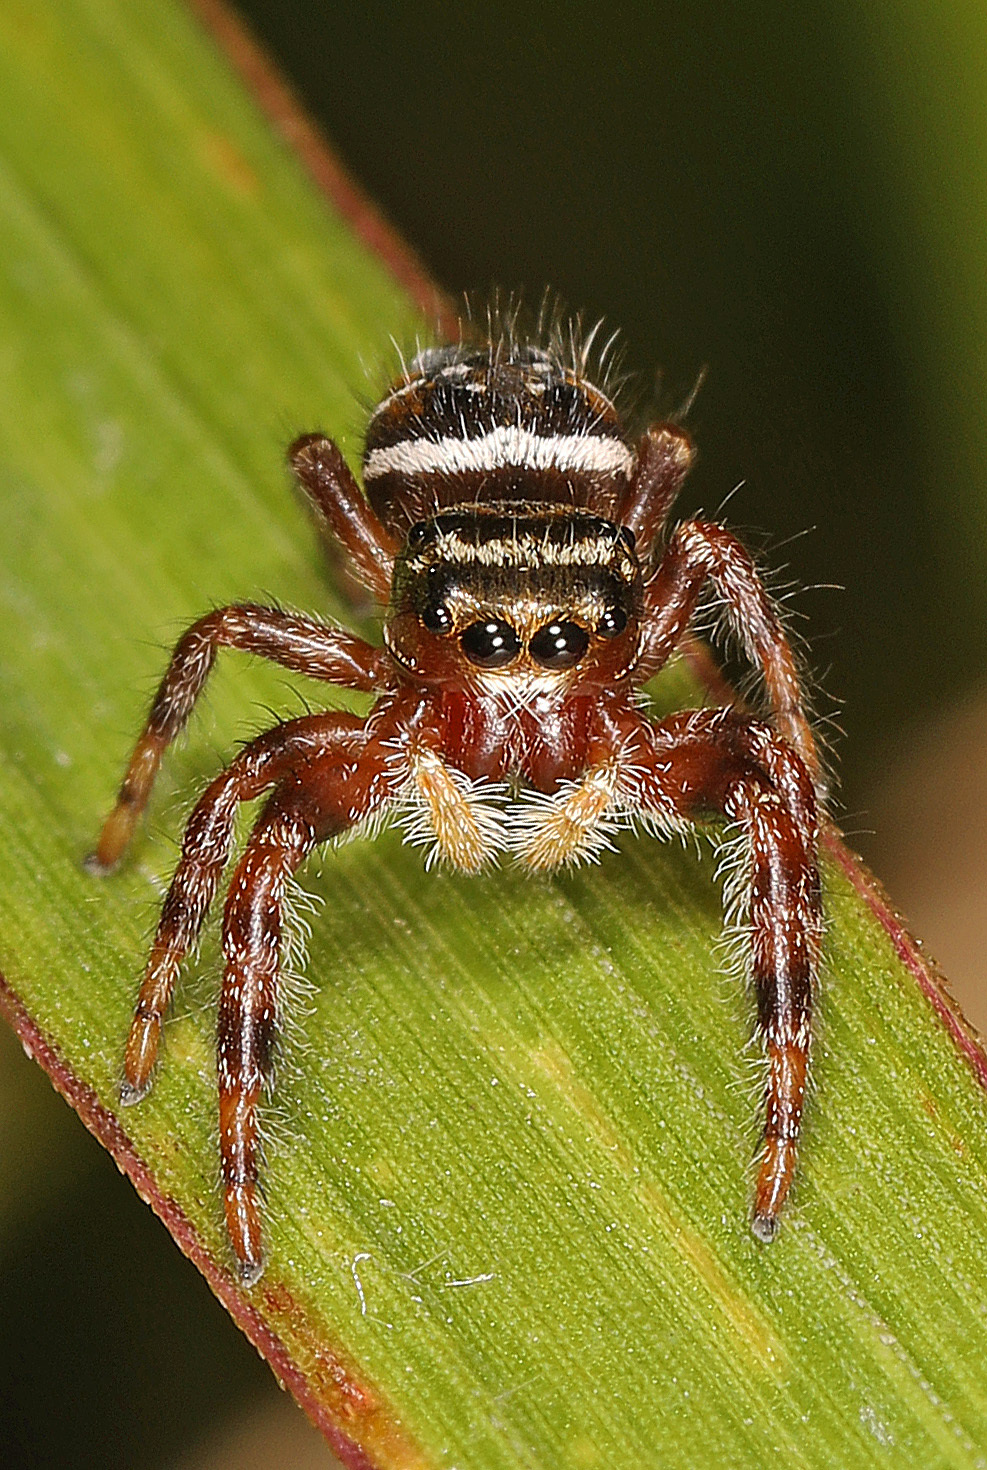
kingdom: Animalia
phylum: Arthropoda
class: Arachnida
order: Araneae
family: Salticidae
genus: Phidippus
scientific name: Phidippus clarus
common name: Brilliant jumping spider
